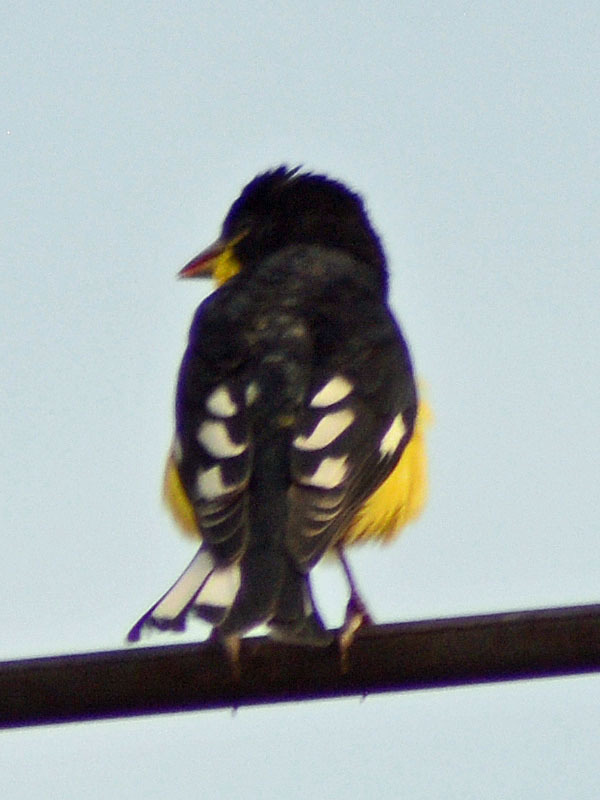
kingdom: Animalia
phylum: Chordata
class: Aves
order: Passeriformes
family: Fringillidae
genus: Spinus
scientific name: Spinus psaltria
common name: Lesser goldfinch
